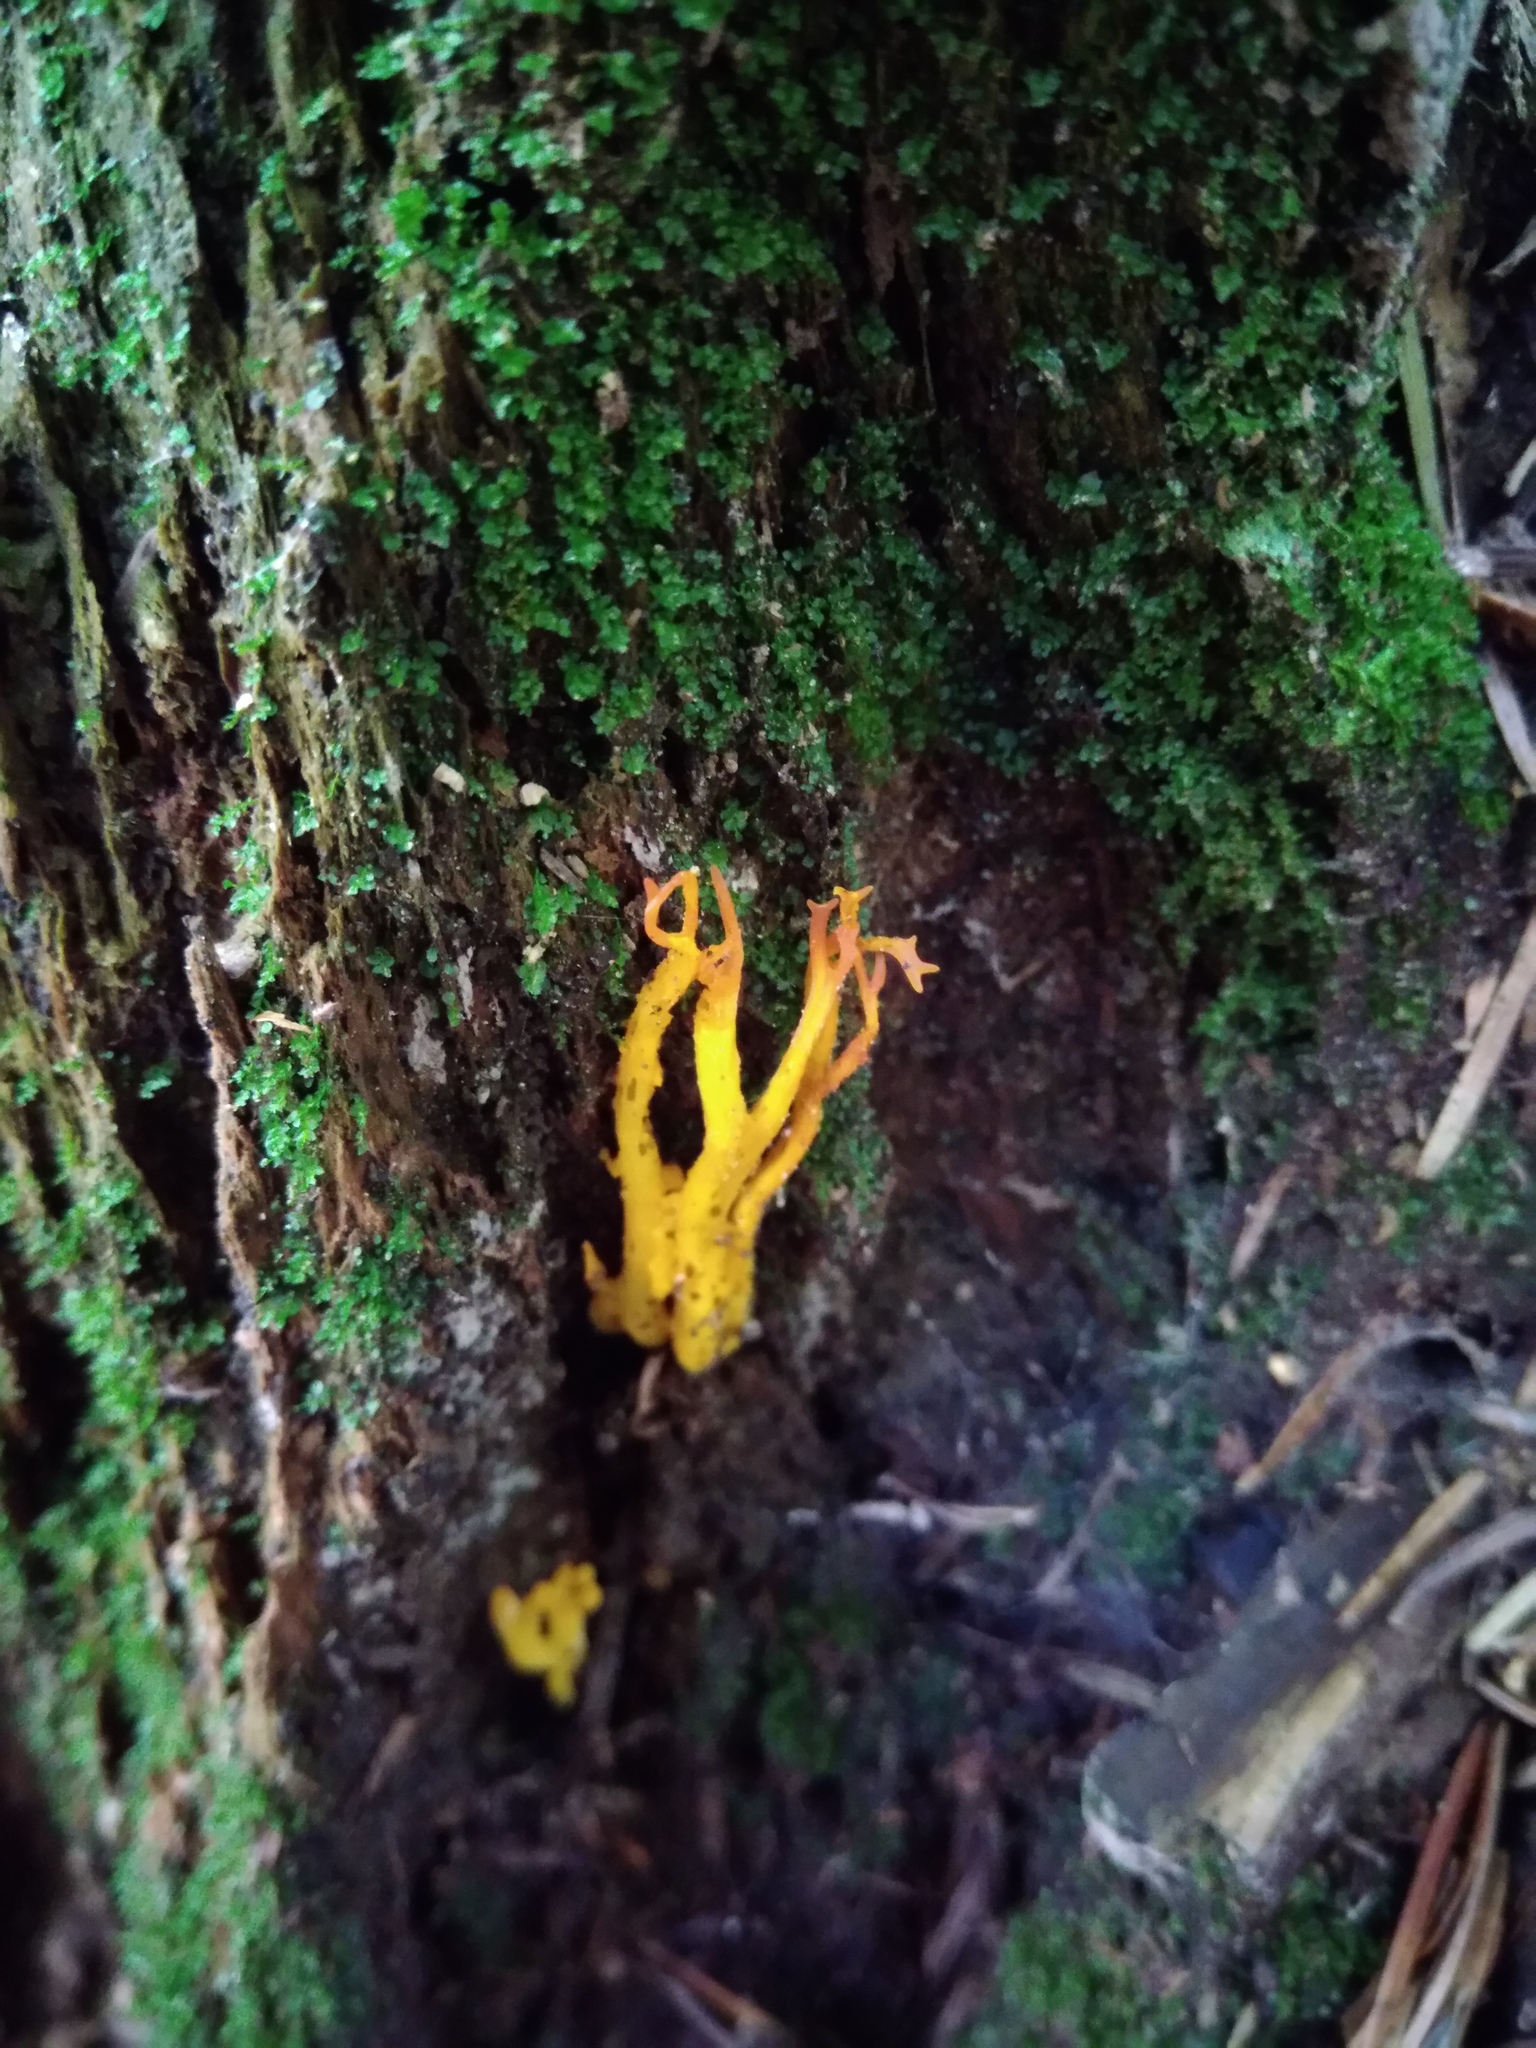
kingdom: Fungi
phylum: Basidiomycota
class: Dacrymycetes
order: Dacrymycetales
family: Dacrymycetaceae
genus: Calocera
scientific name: Calocera viscosa
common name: Yellow stagshorn
